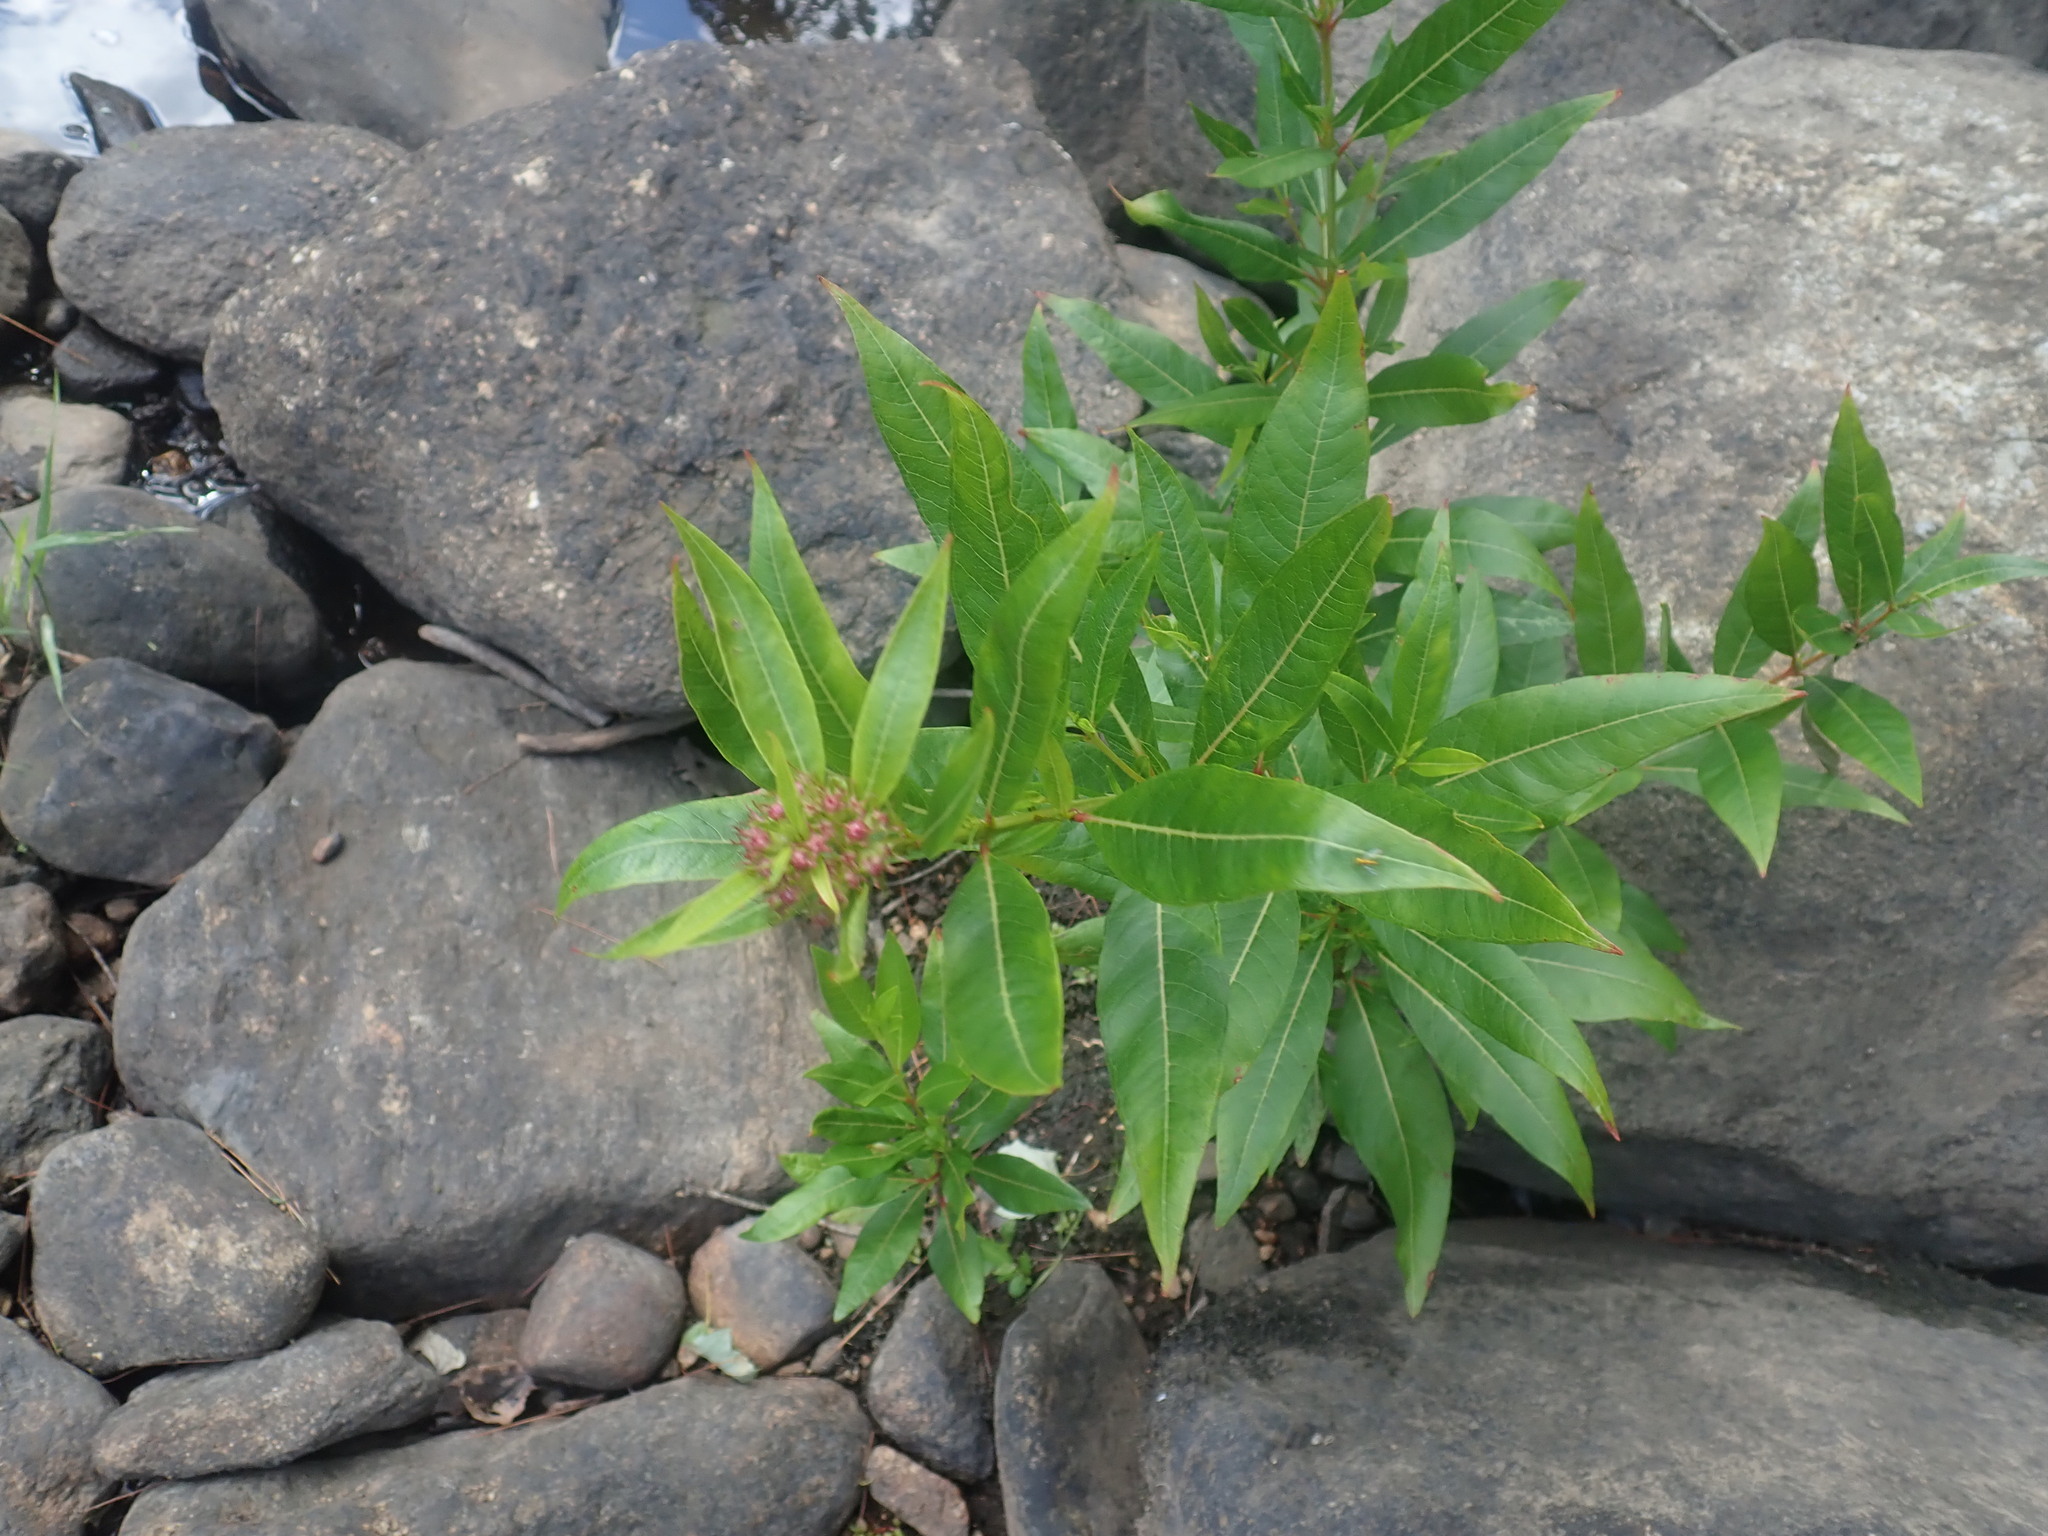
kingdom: Plantae
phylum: Tracheophyta
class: Magnoliopsida
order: Myrtales
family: Lythraceae
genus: Decodon
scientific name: Decodon verticillatus
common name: Hairy swamp loosestrife
